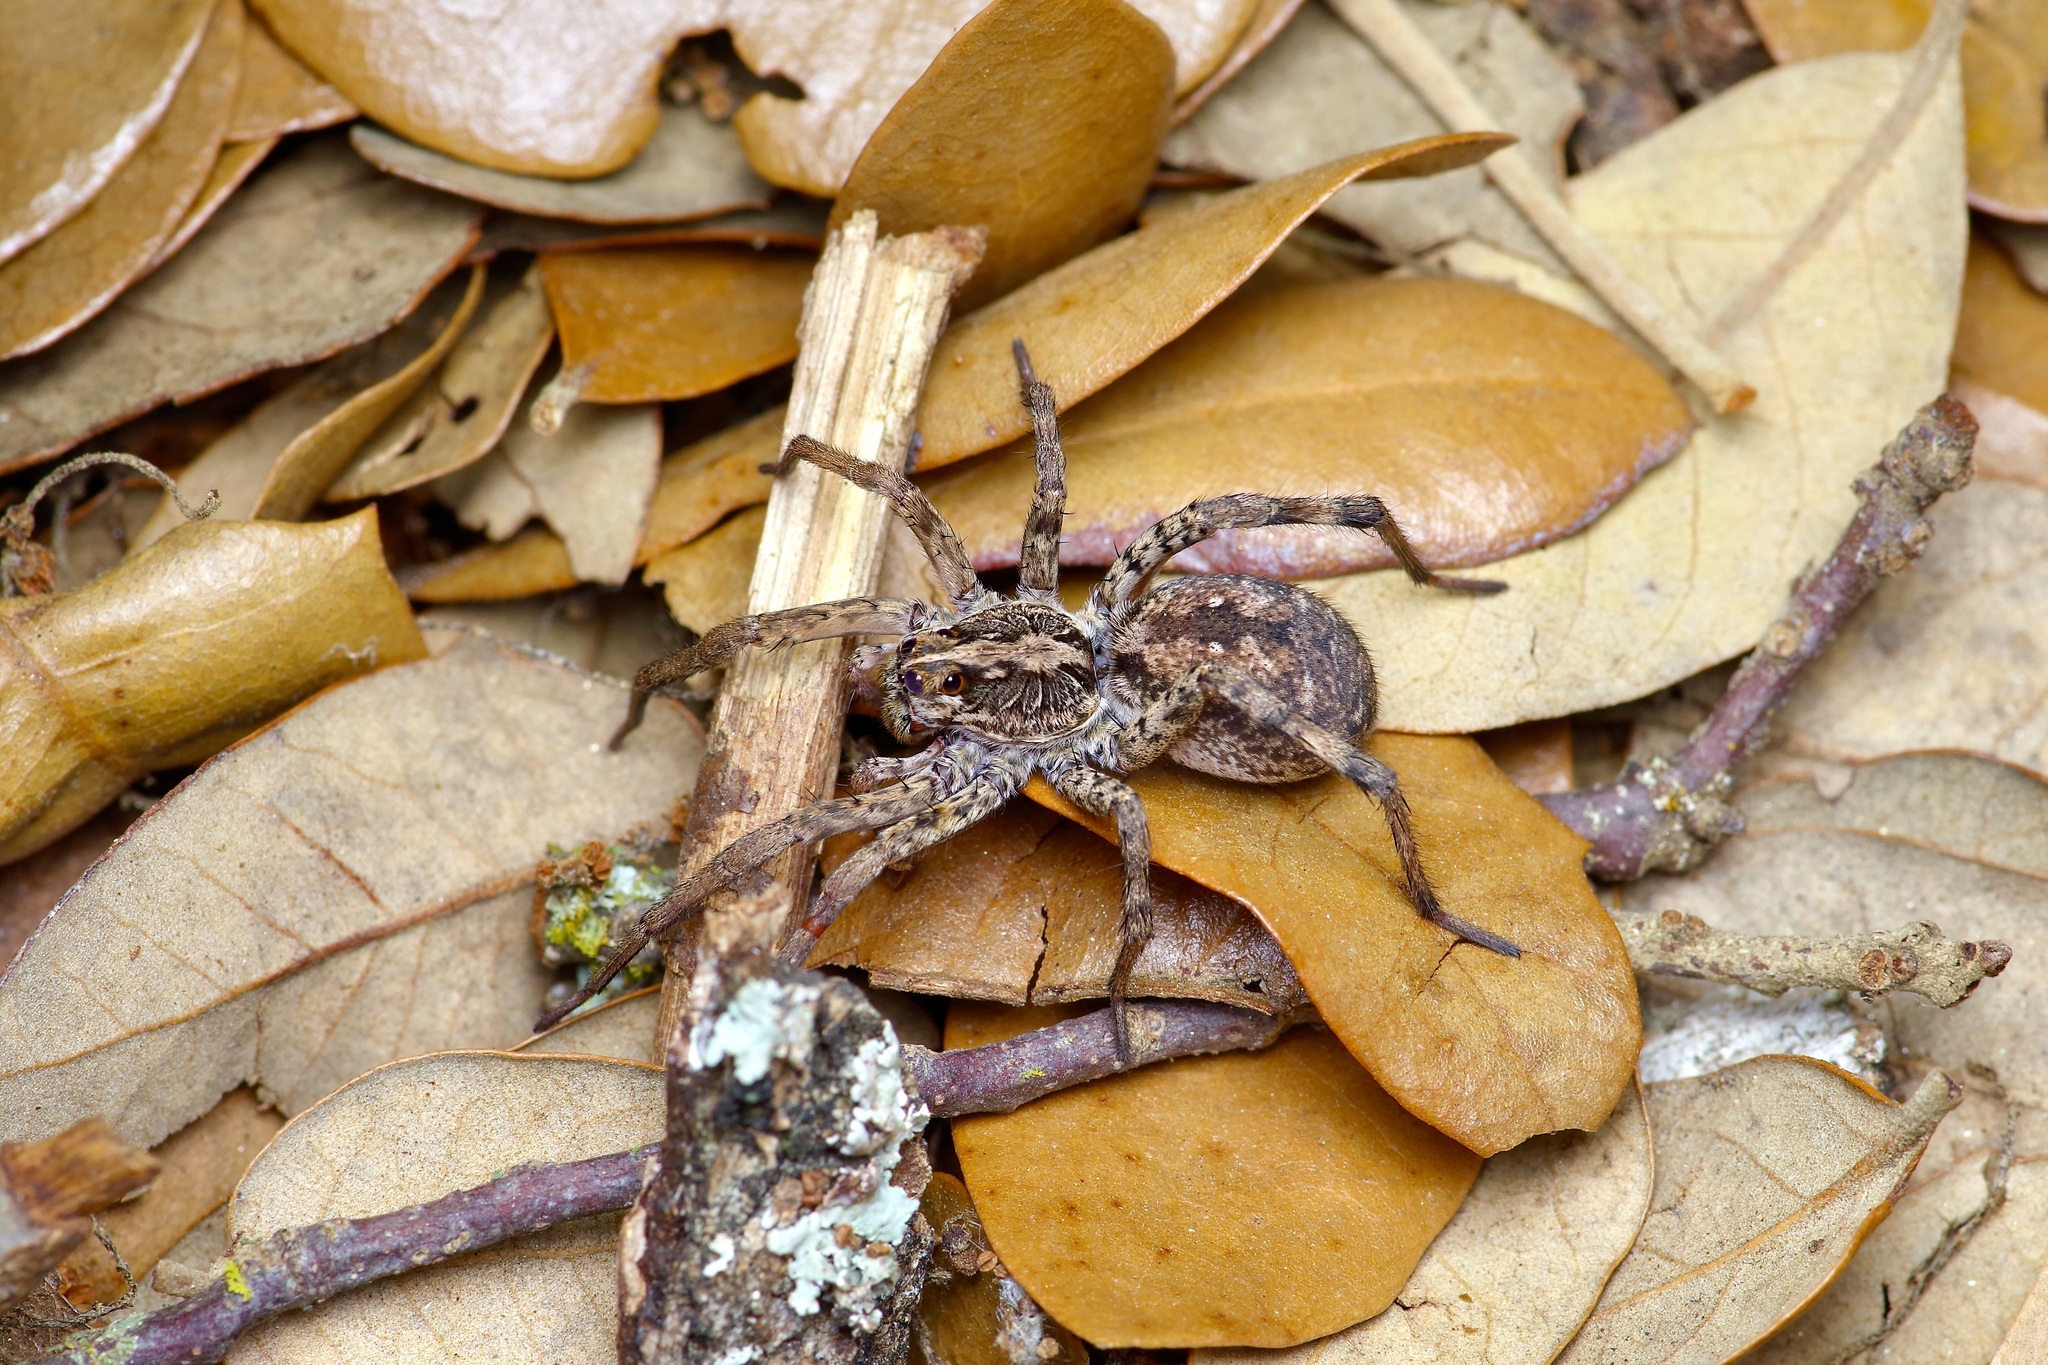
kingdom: Animalia
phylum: Arthropoda
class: Arachnida
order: Araneae
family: Lycosidae
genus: Hogna
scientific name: Hogna antelucana
